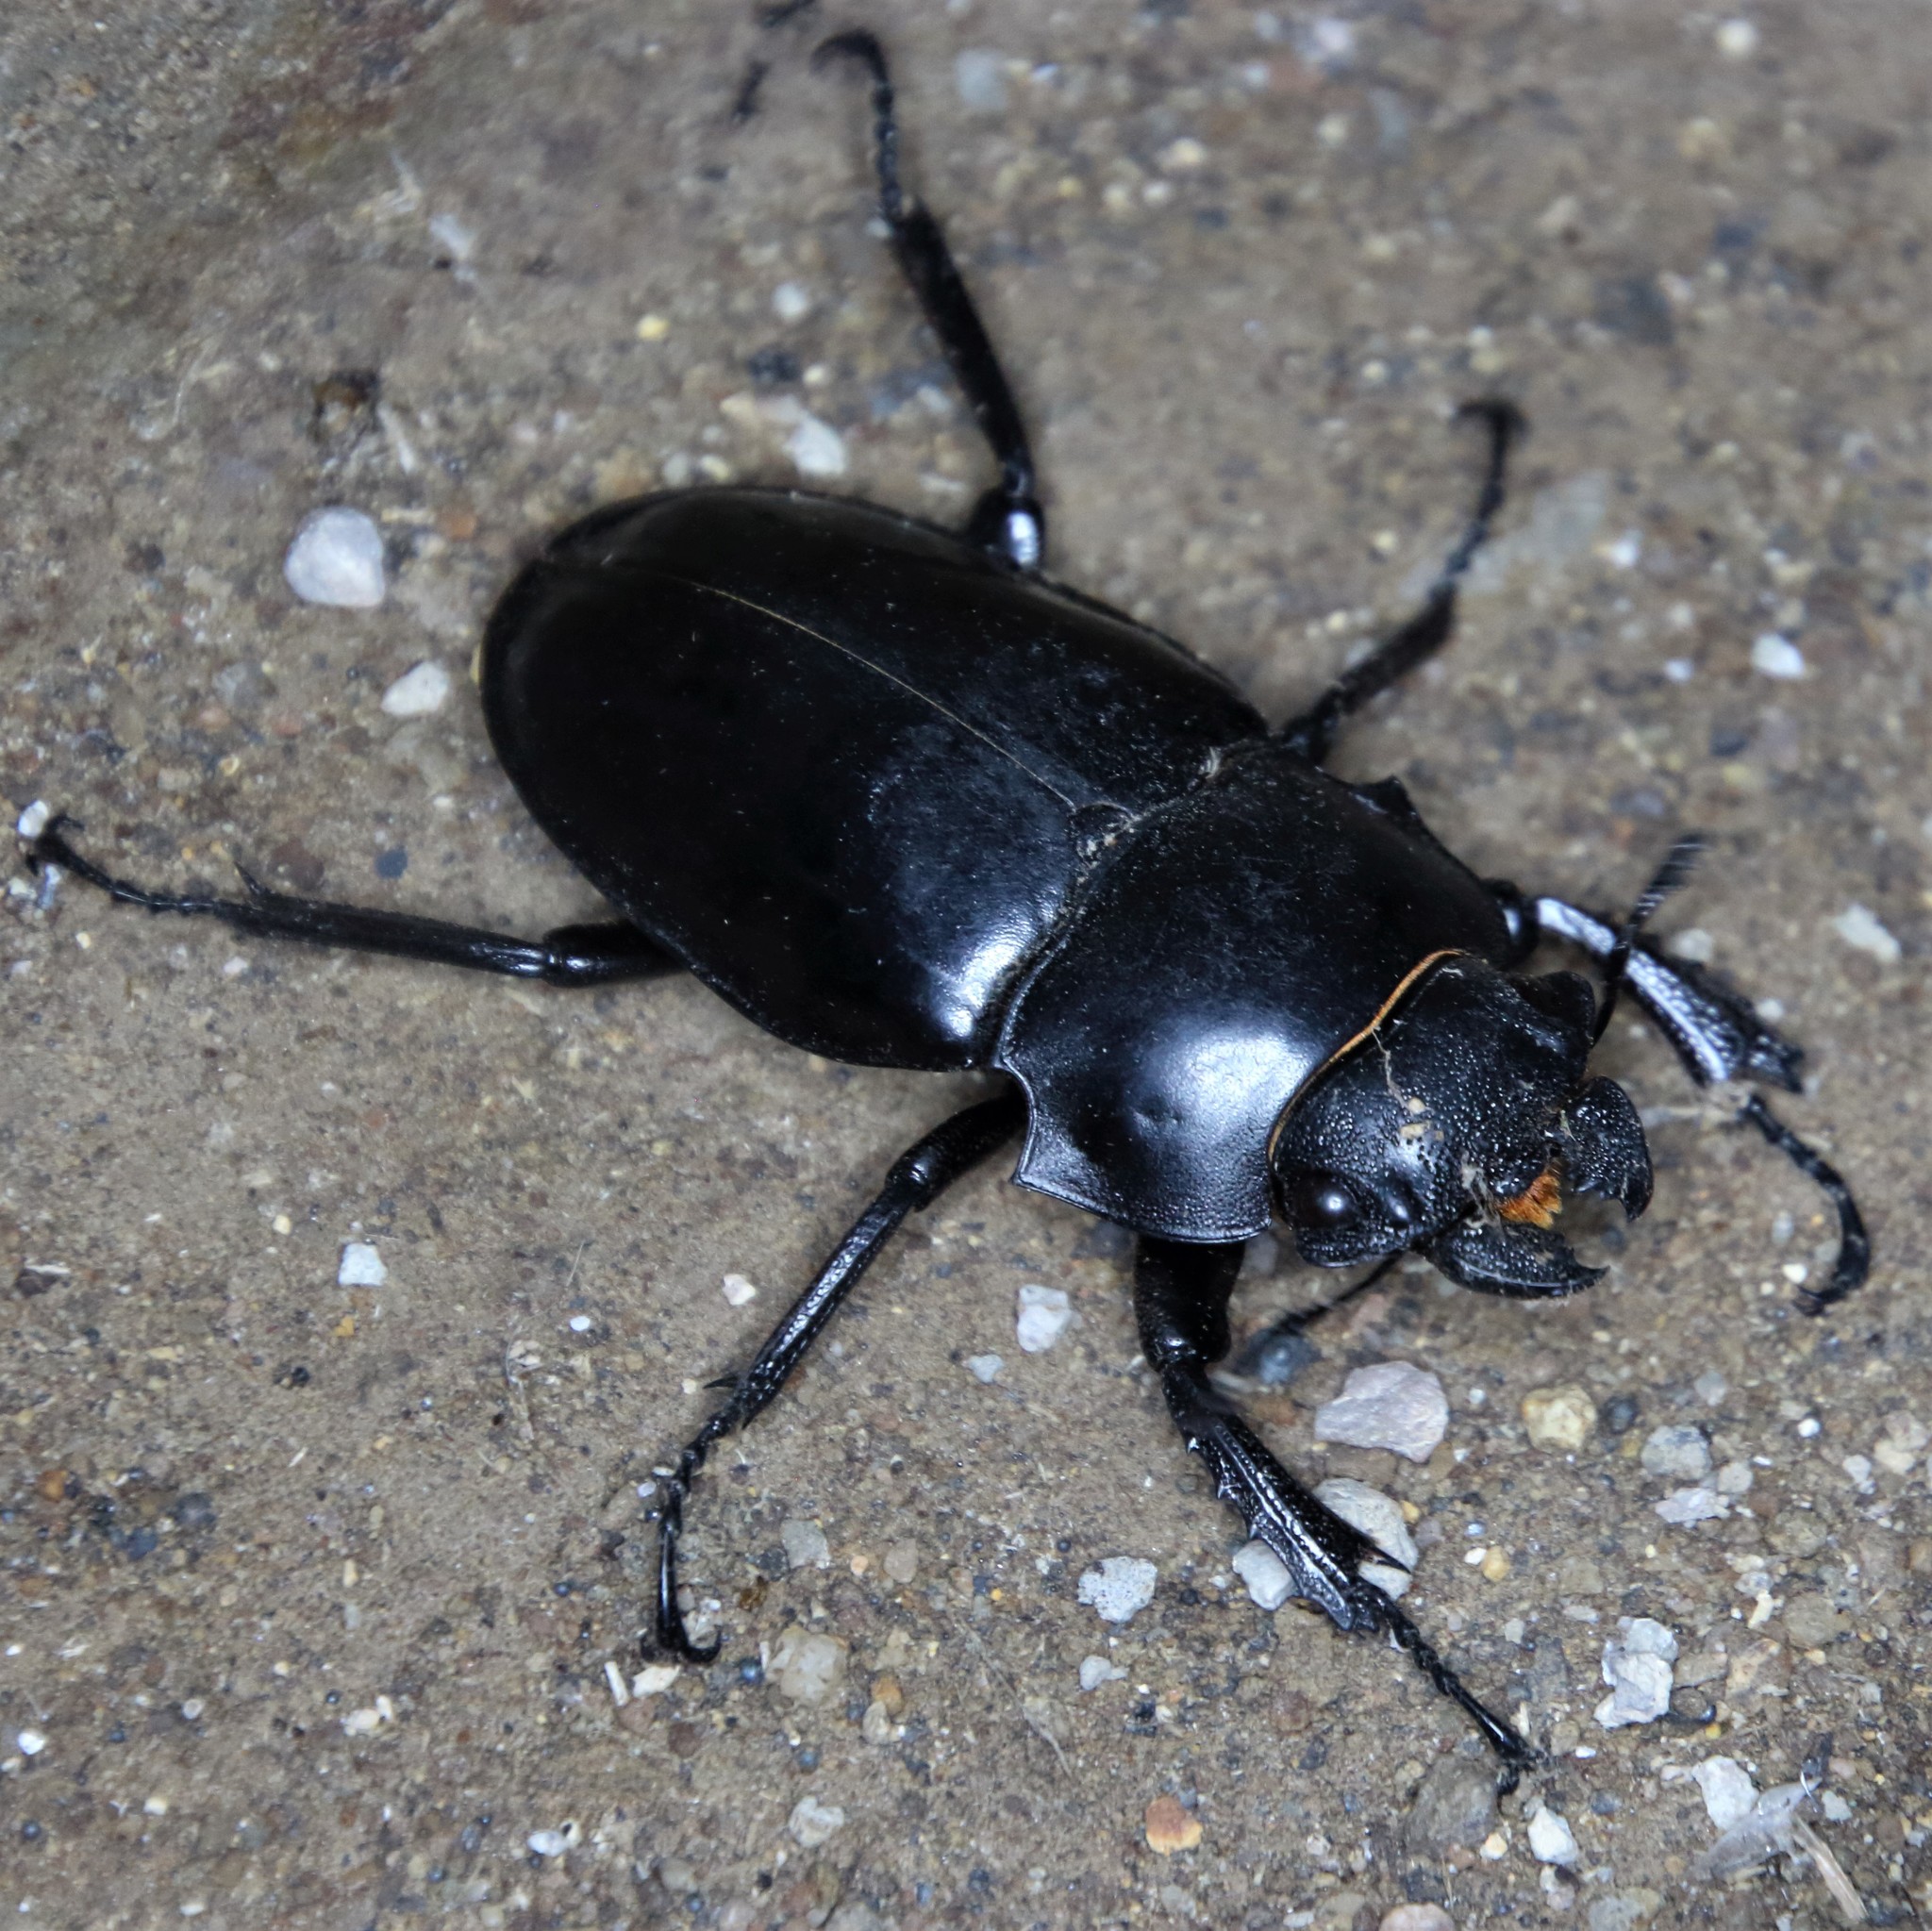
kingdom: Animalia
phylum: Arthropoda
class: Insecta
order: Coleoptera
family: Lucanidae
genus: Odontolabis
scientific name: Odontolabis siva
